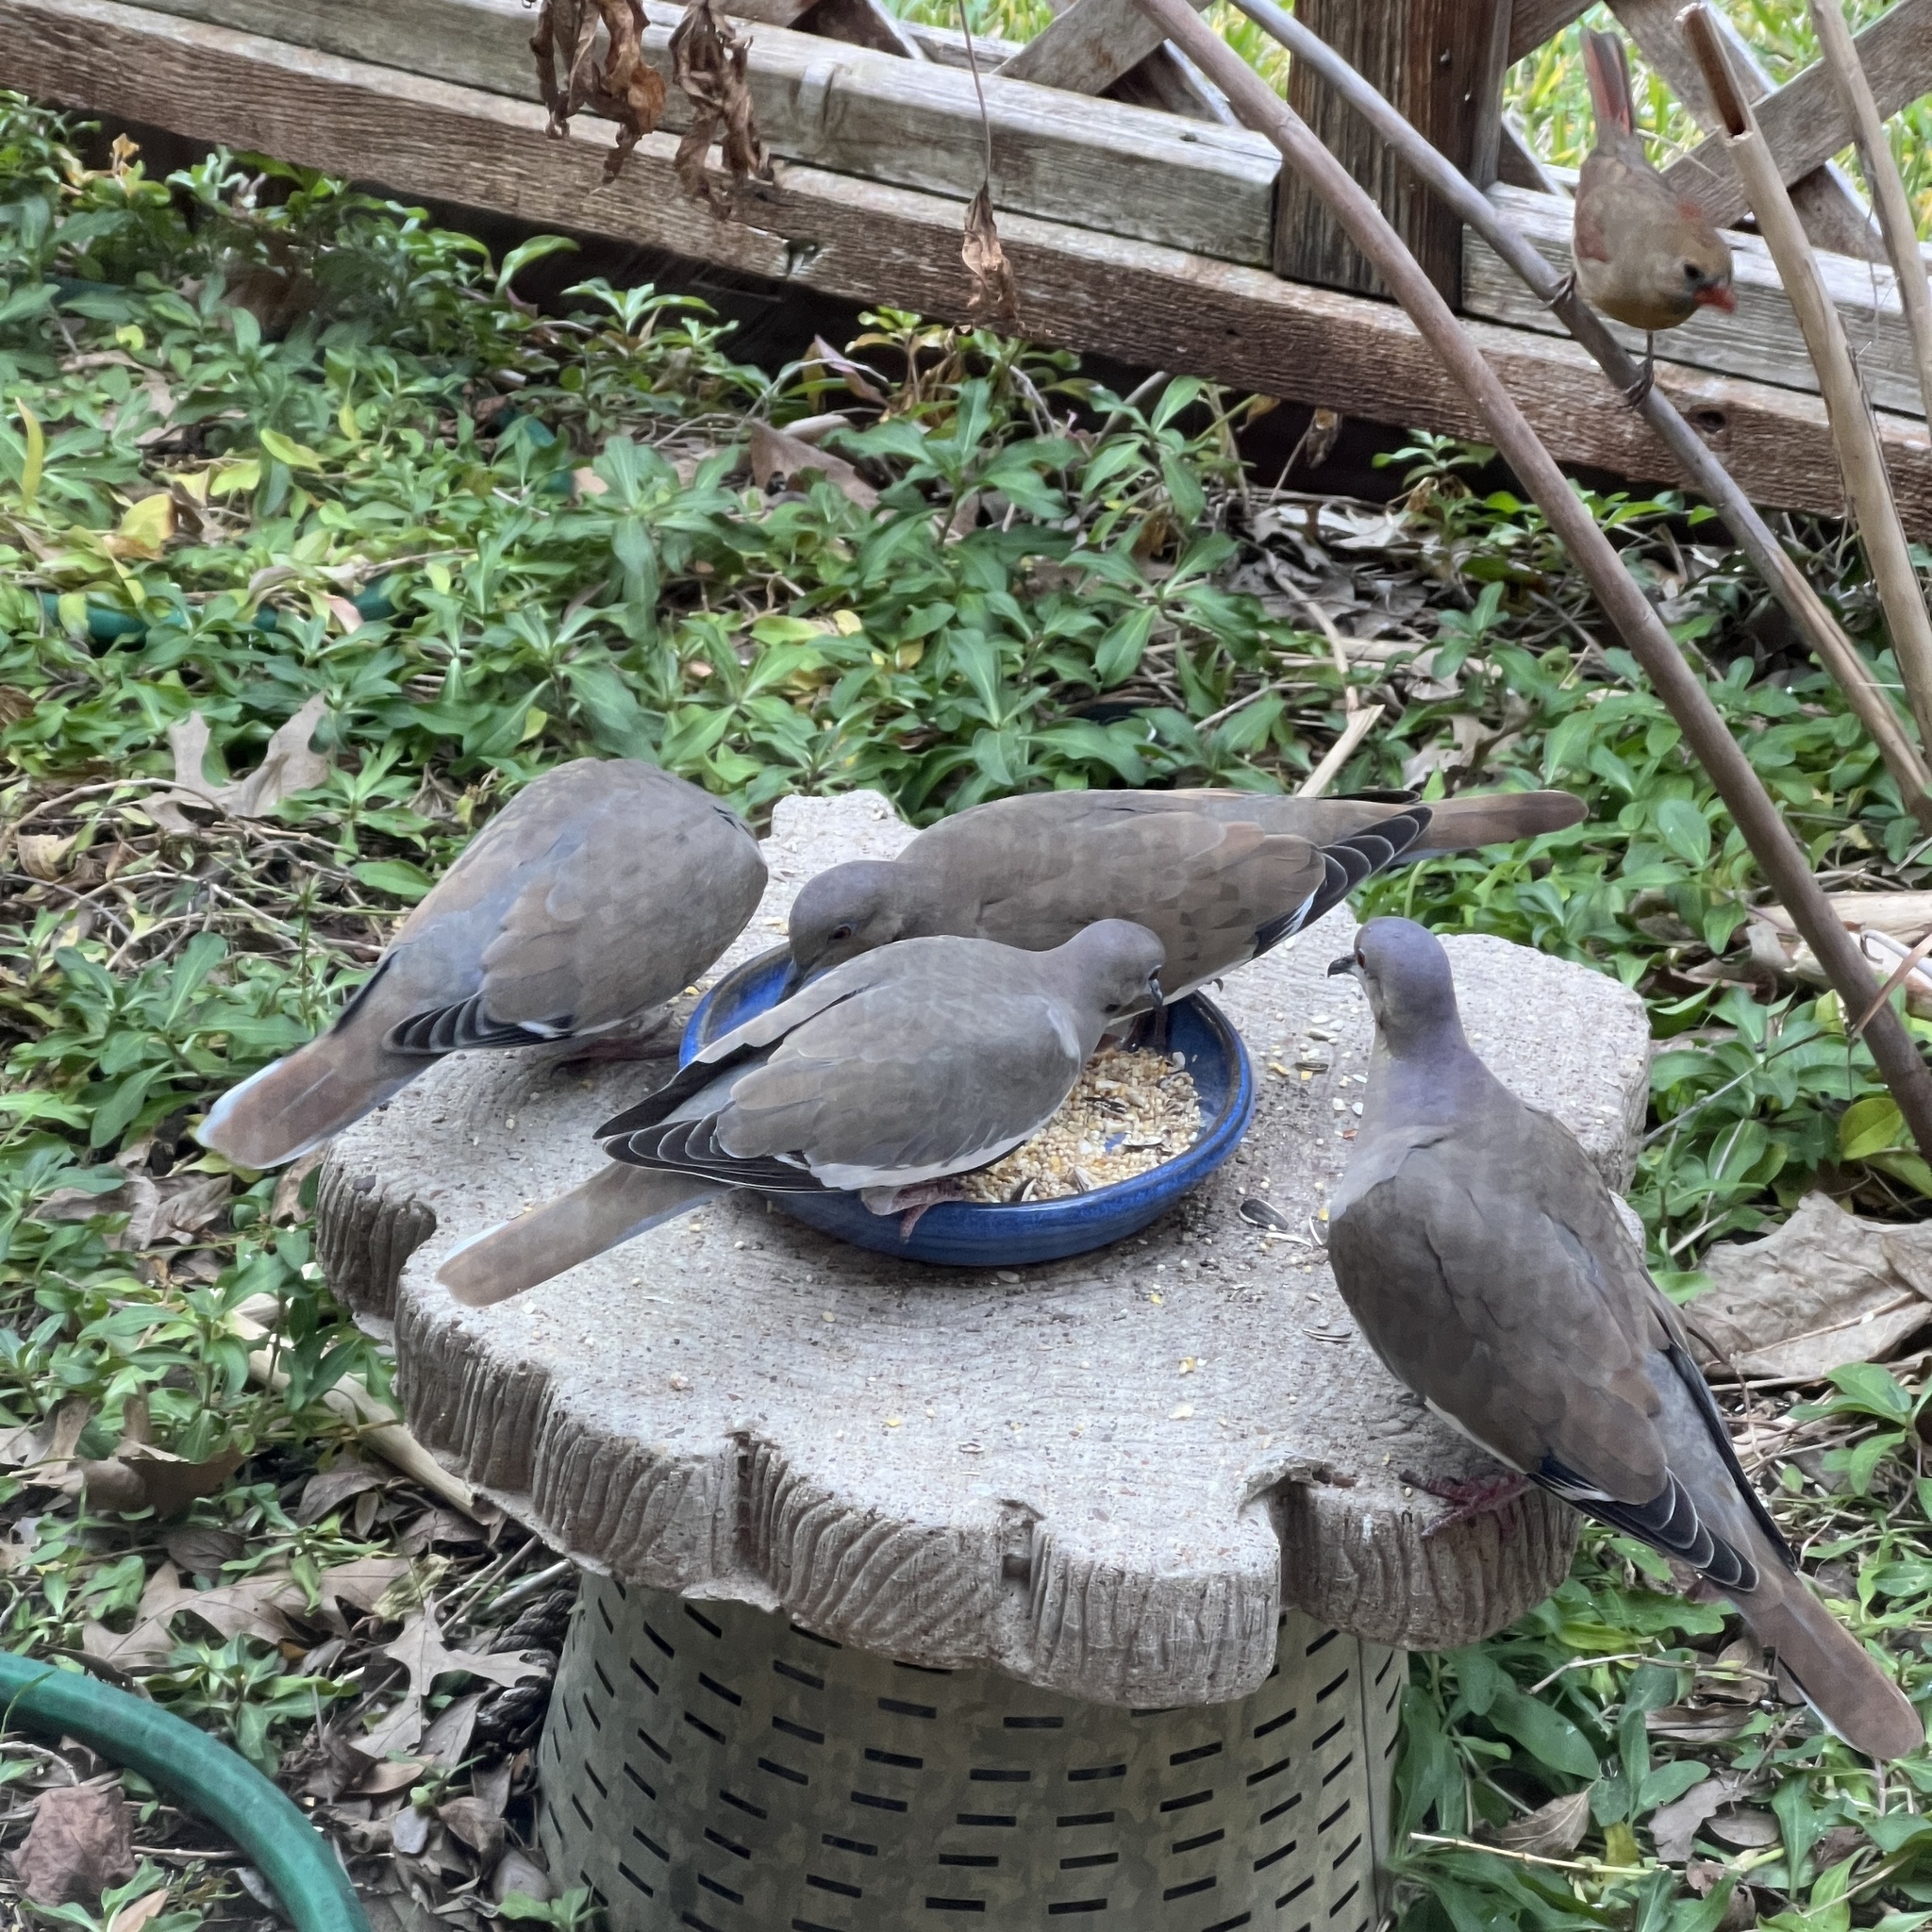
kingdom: Animalia
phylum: Chordata
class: Aves
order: Columbiformes
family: Columbidae
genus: Zenaida
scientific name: Zenaida asiatica
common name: White-winged dove
